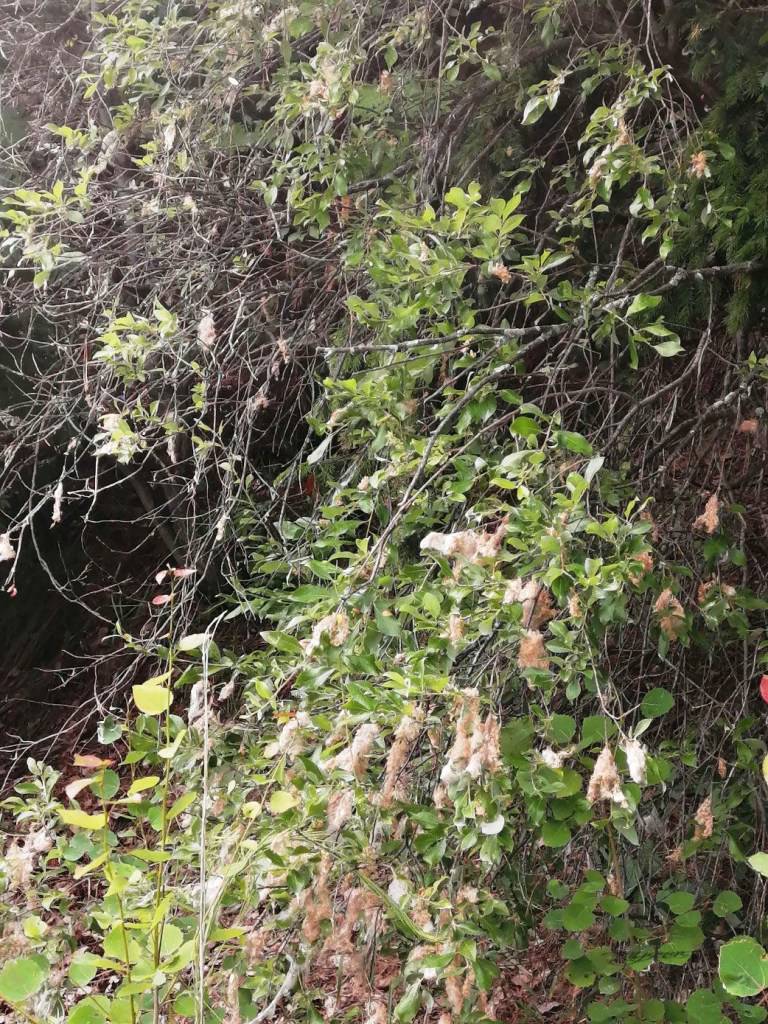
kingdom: Plantae
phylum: Tracheophyta
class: Magnoliopsida
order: Malpighiales
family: Salicaceae
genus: Salix
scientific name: Salix jenisseensis
